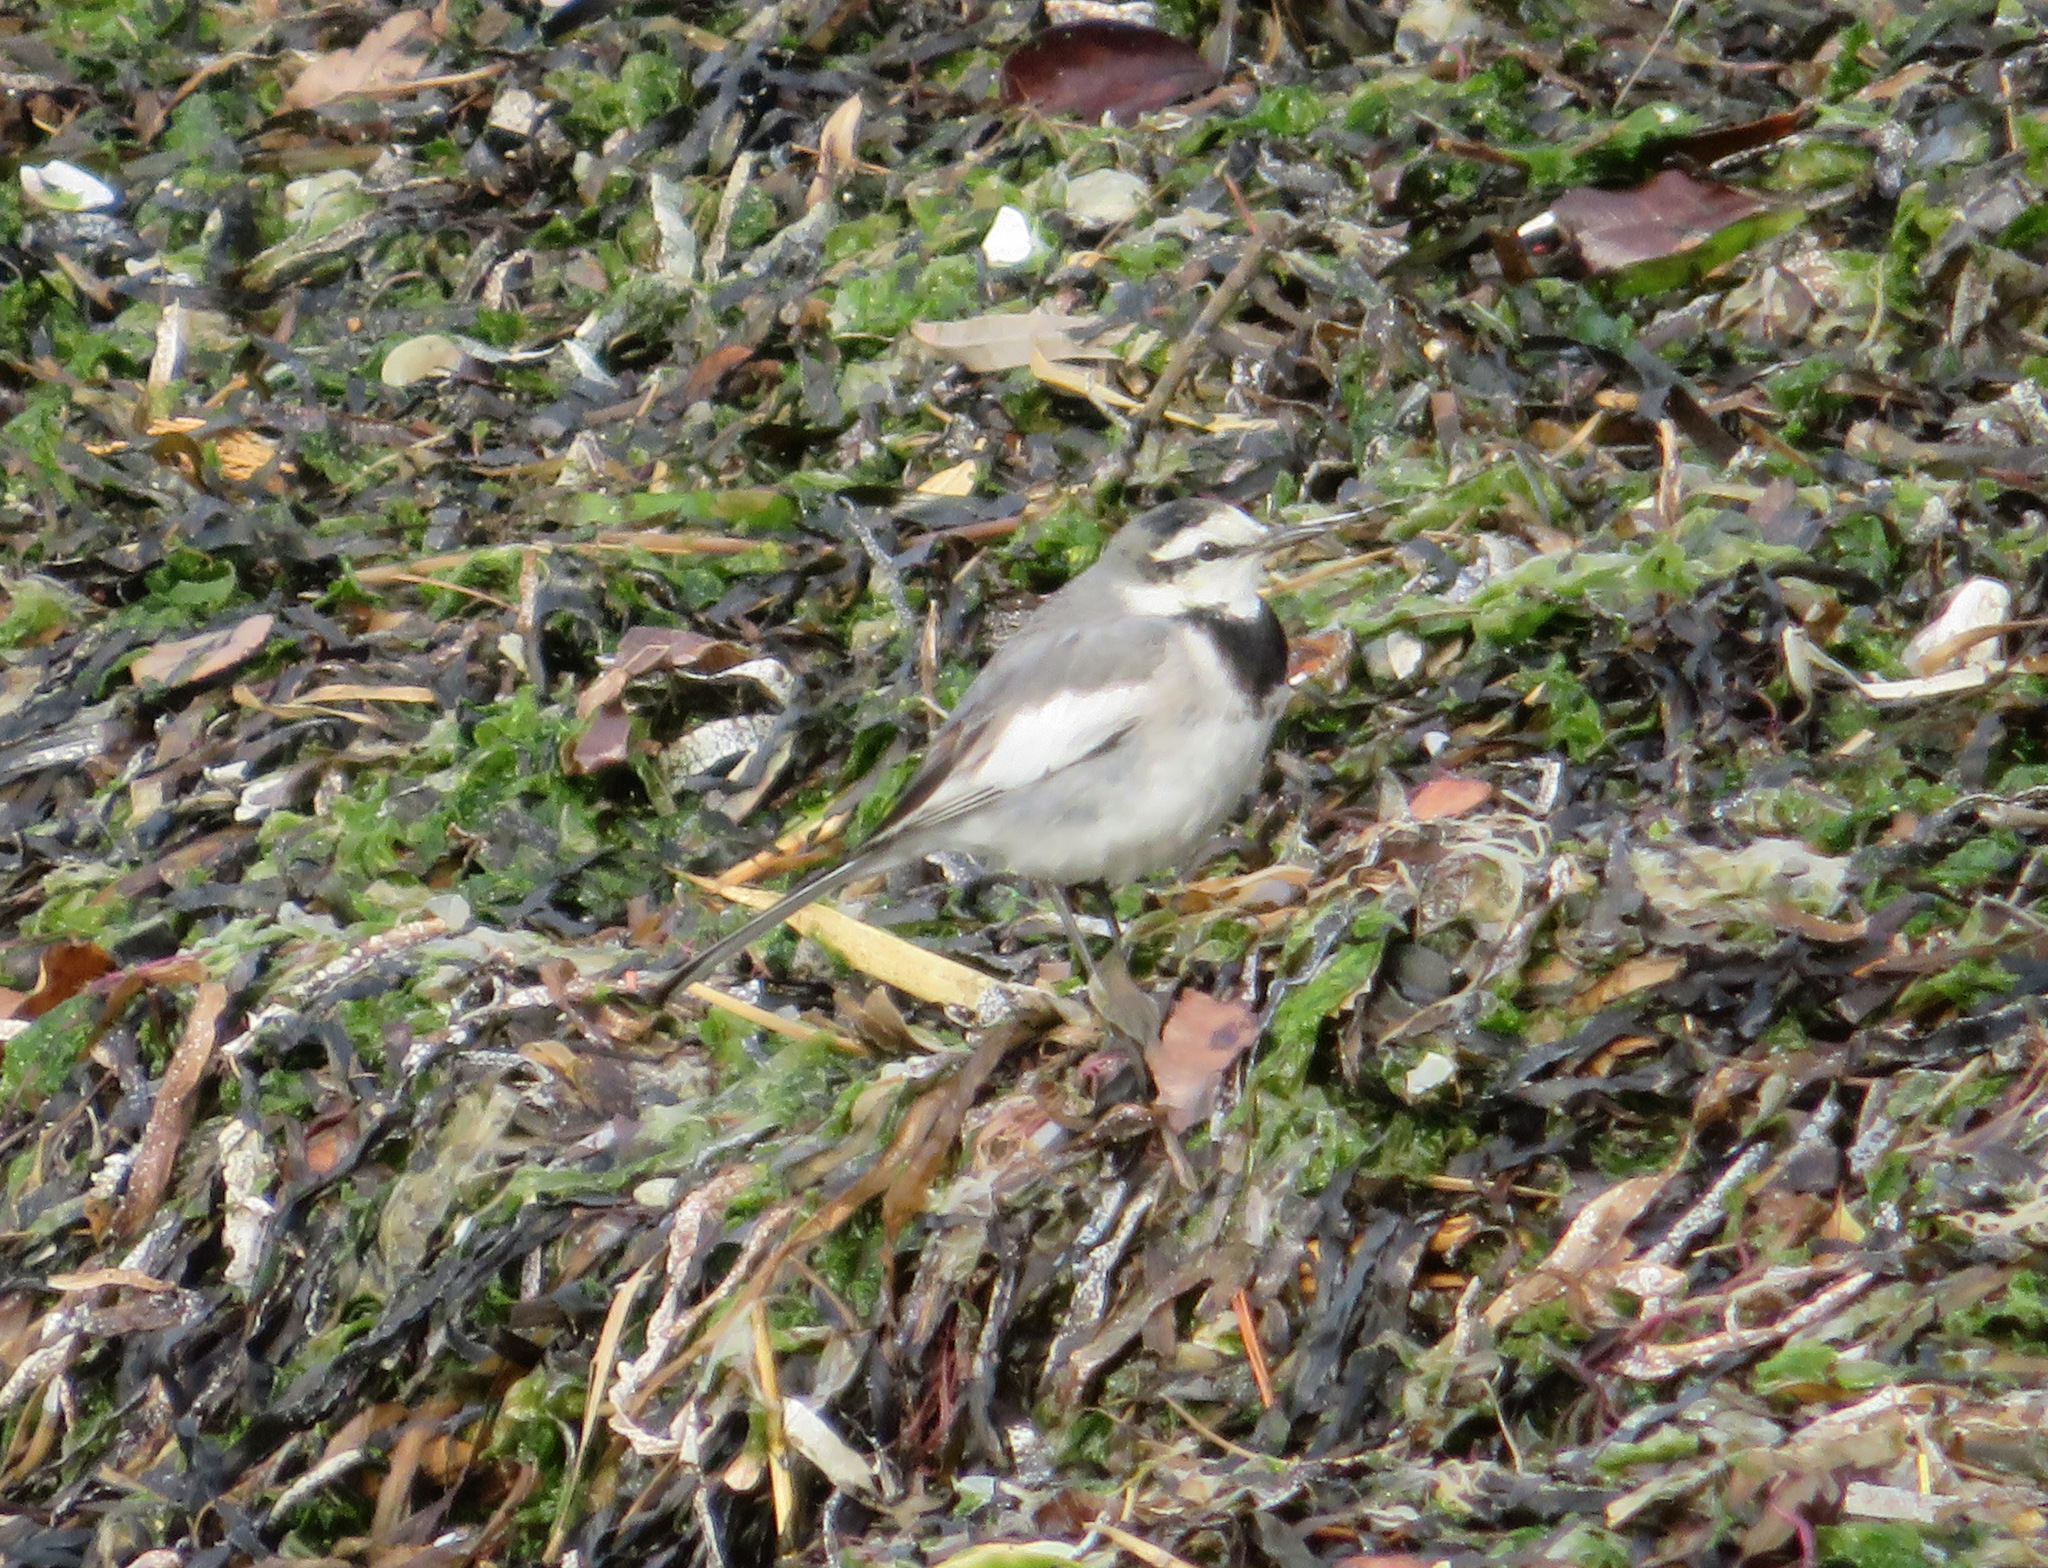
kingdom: Animalia
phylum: Chordata
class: Aves
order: Passeriformes
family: Motacillidae
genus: Motacilla
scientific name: Motacilla alba
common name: White wagtail
